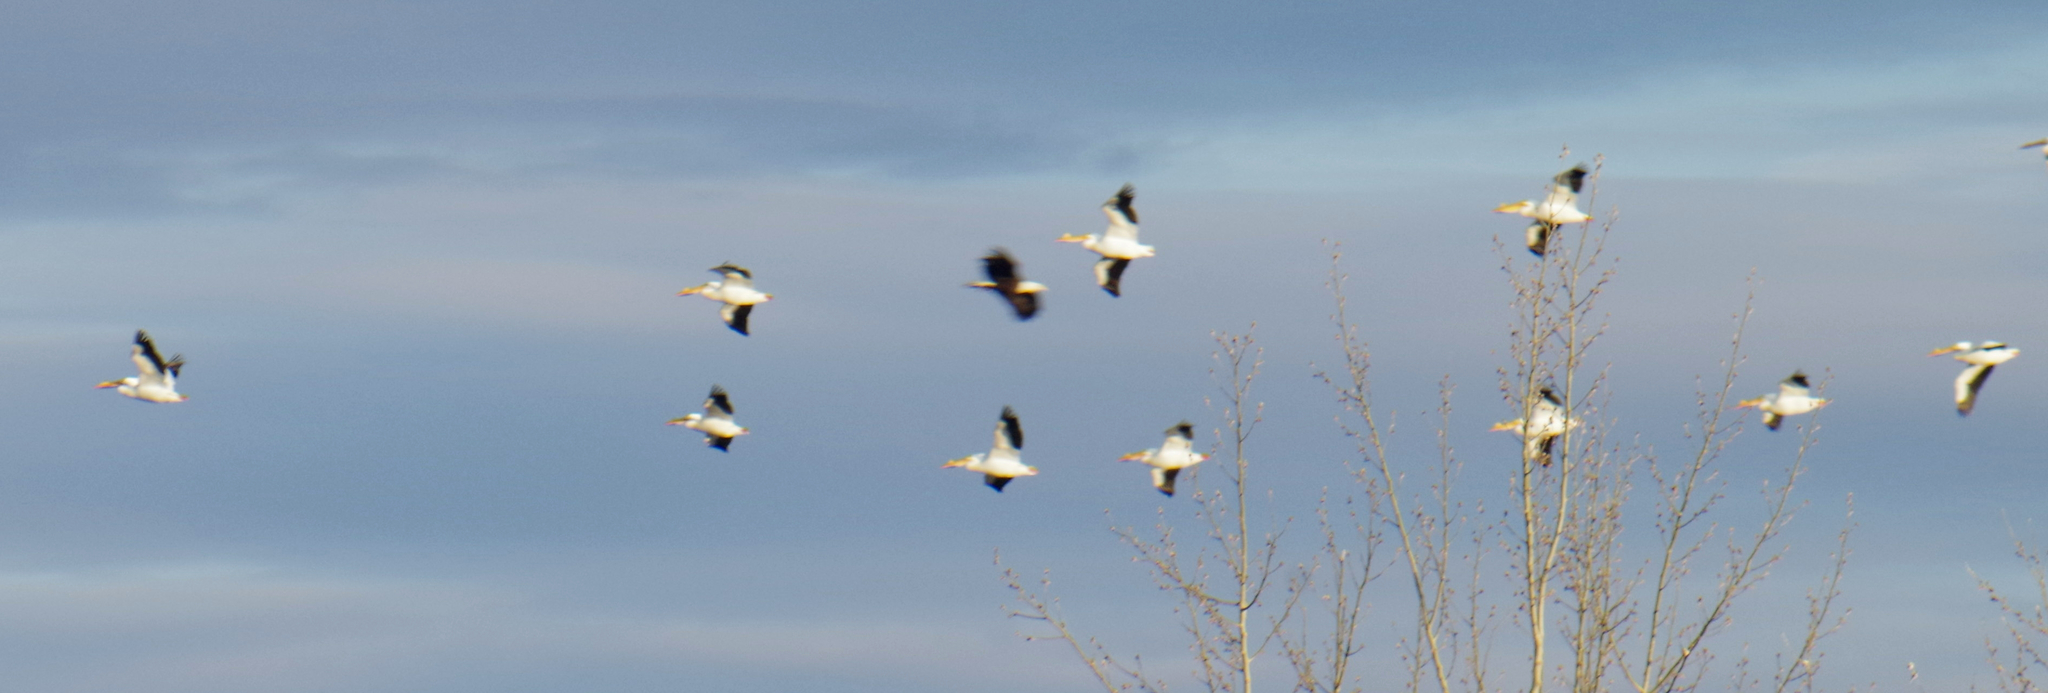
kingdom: Animalia
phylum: Chordata
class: Aves
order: Pelecaniformes
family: Pelecanidae
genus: Pelecanus
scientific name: Pelecanus erythrorhynchos
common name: American white pelican
